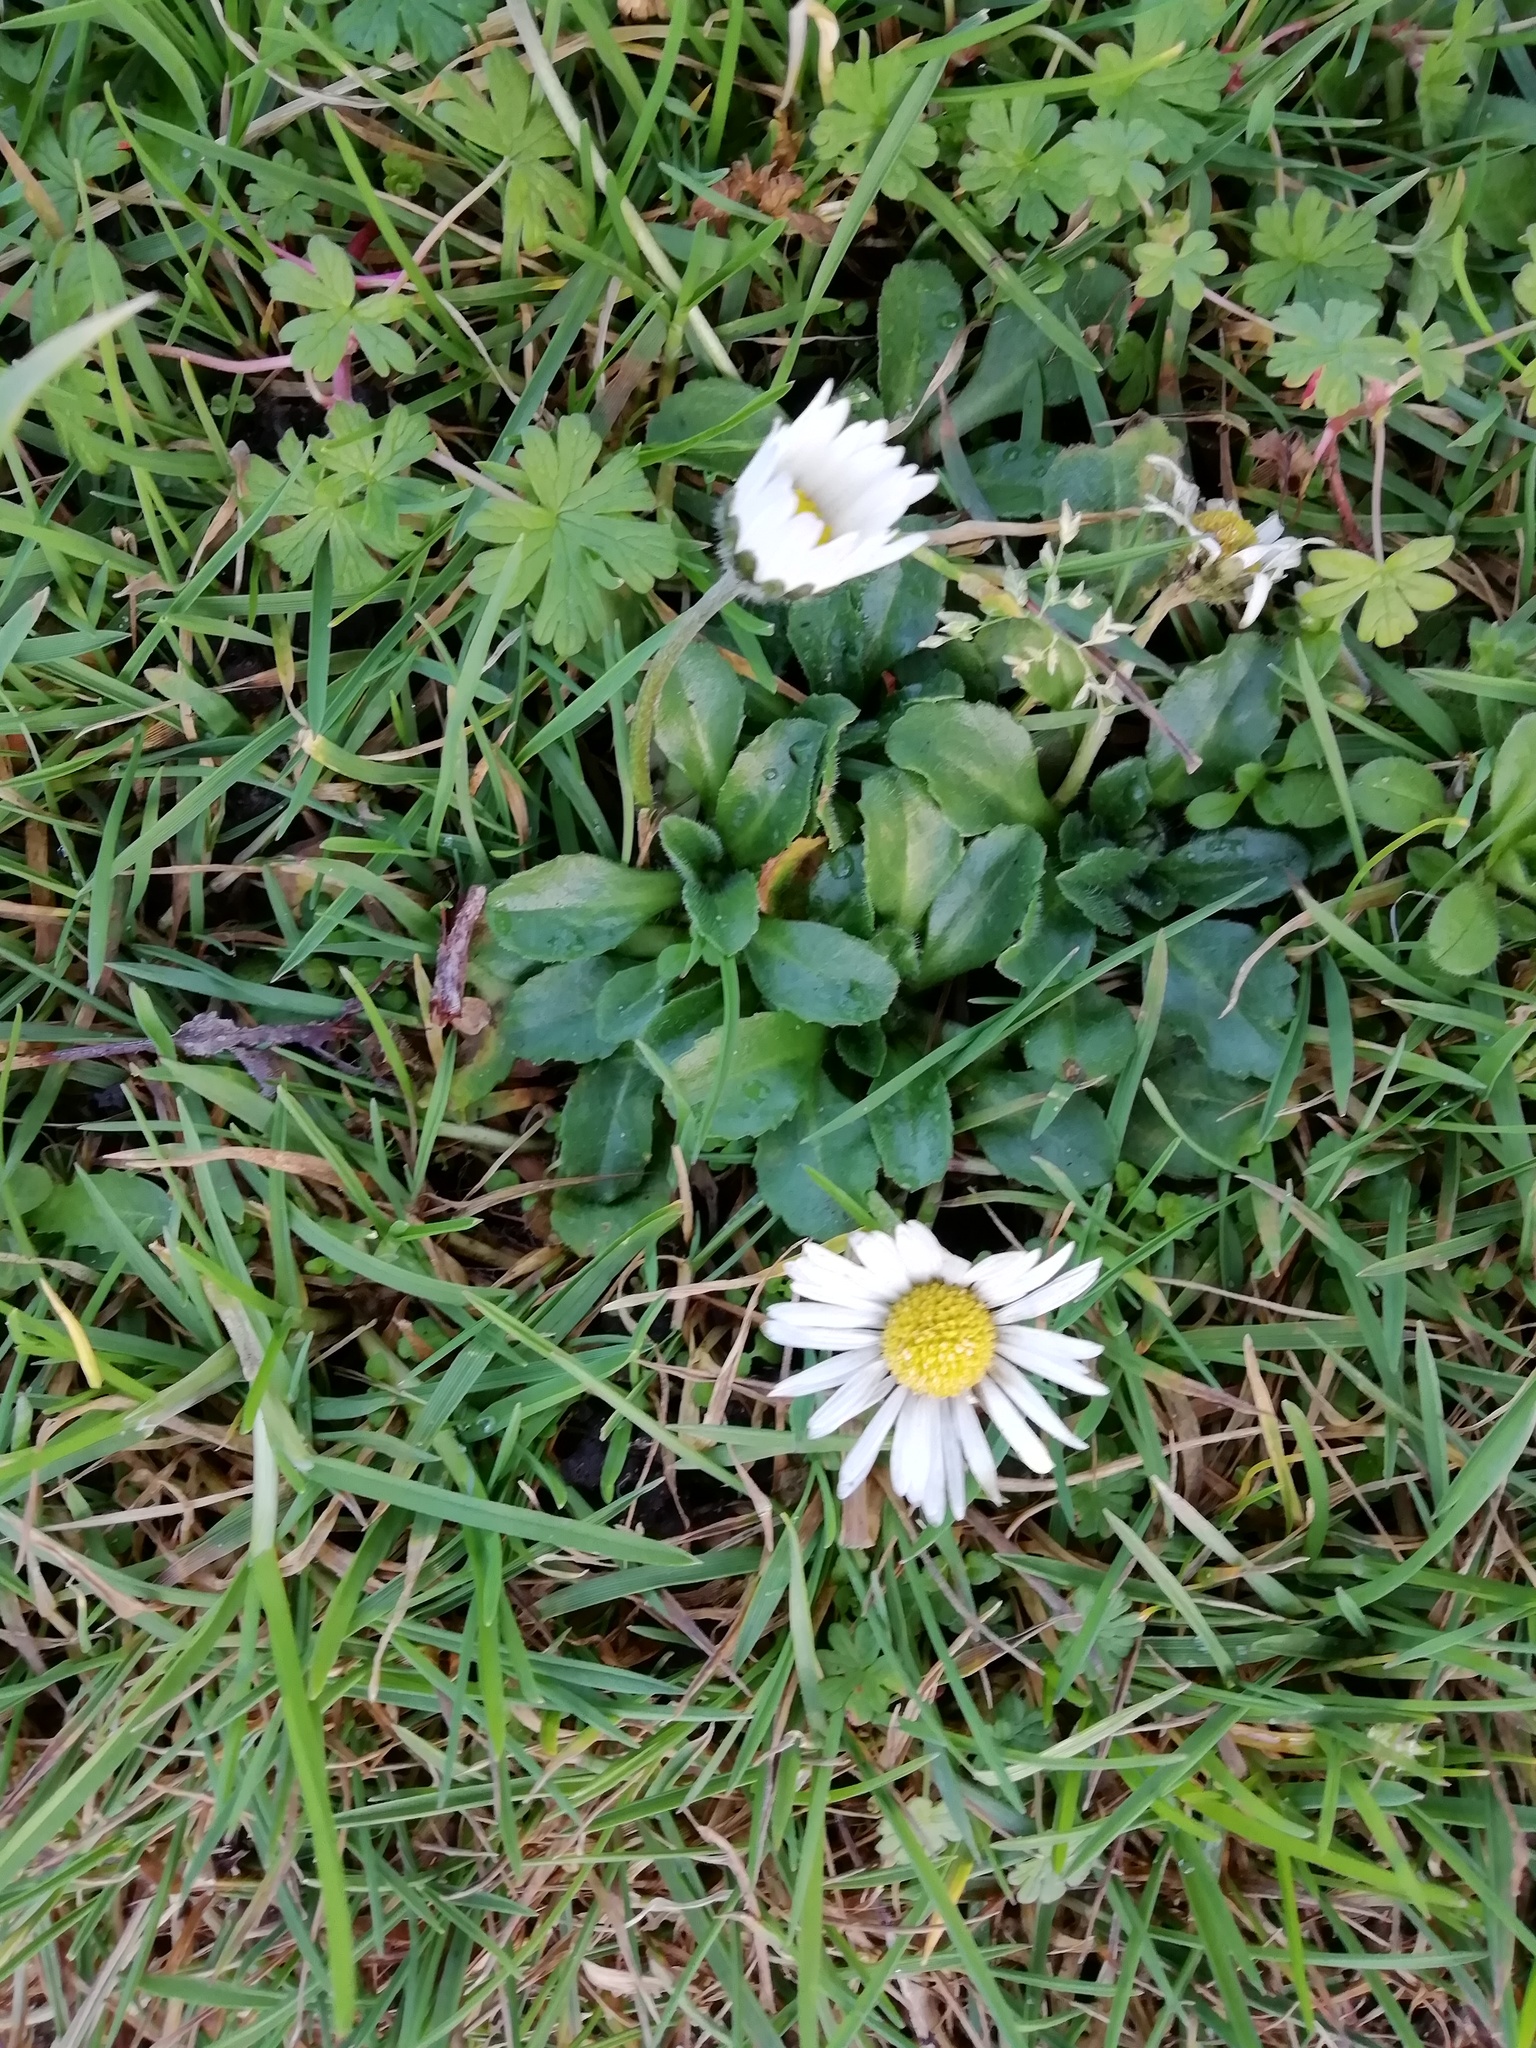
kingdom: Plantae
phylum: Tracheophyta
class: Magnoliopsida
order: Asterales
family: Asteraceae
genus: Bellis
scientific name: Bellis perennis
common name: Lawndaisy
